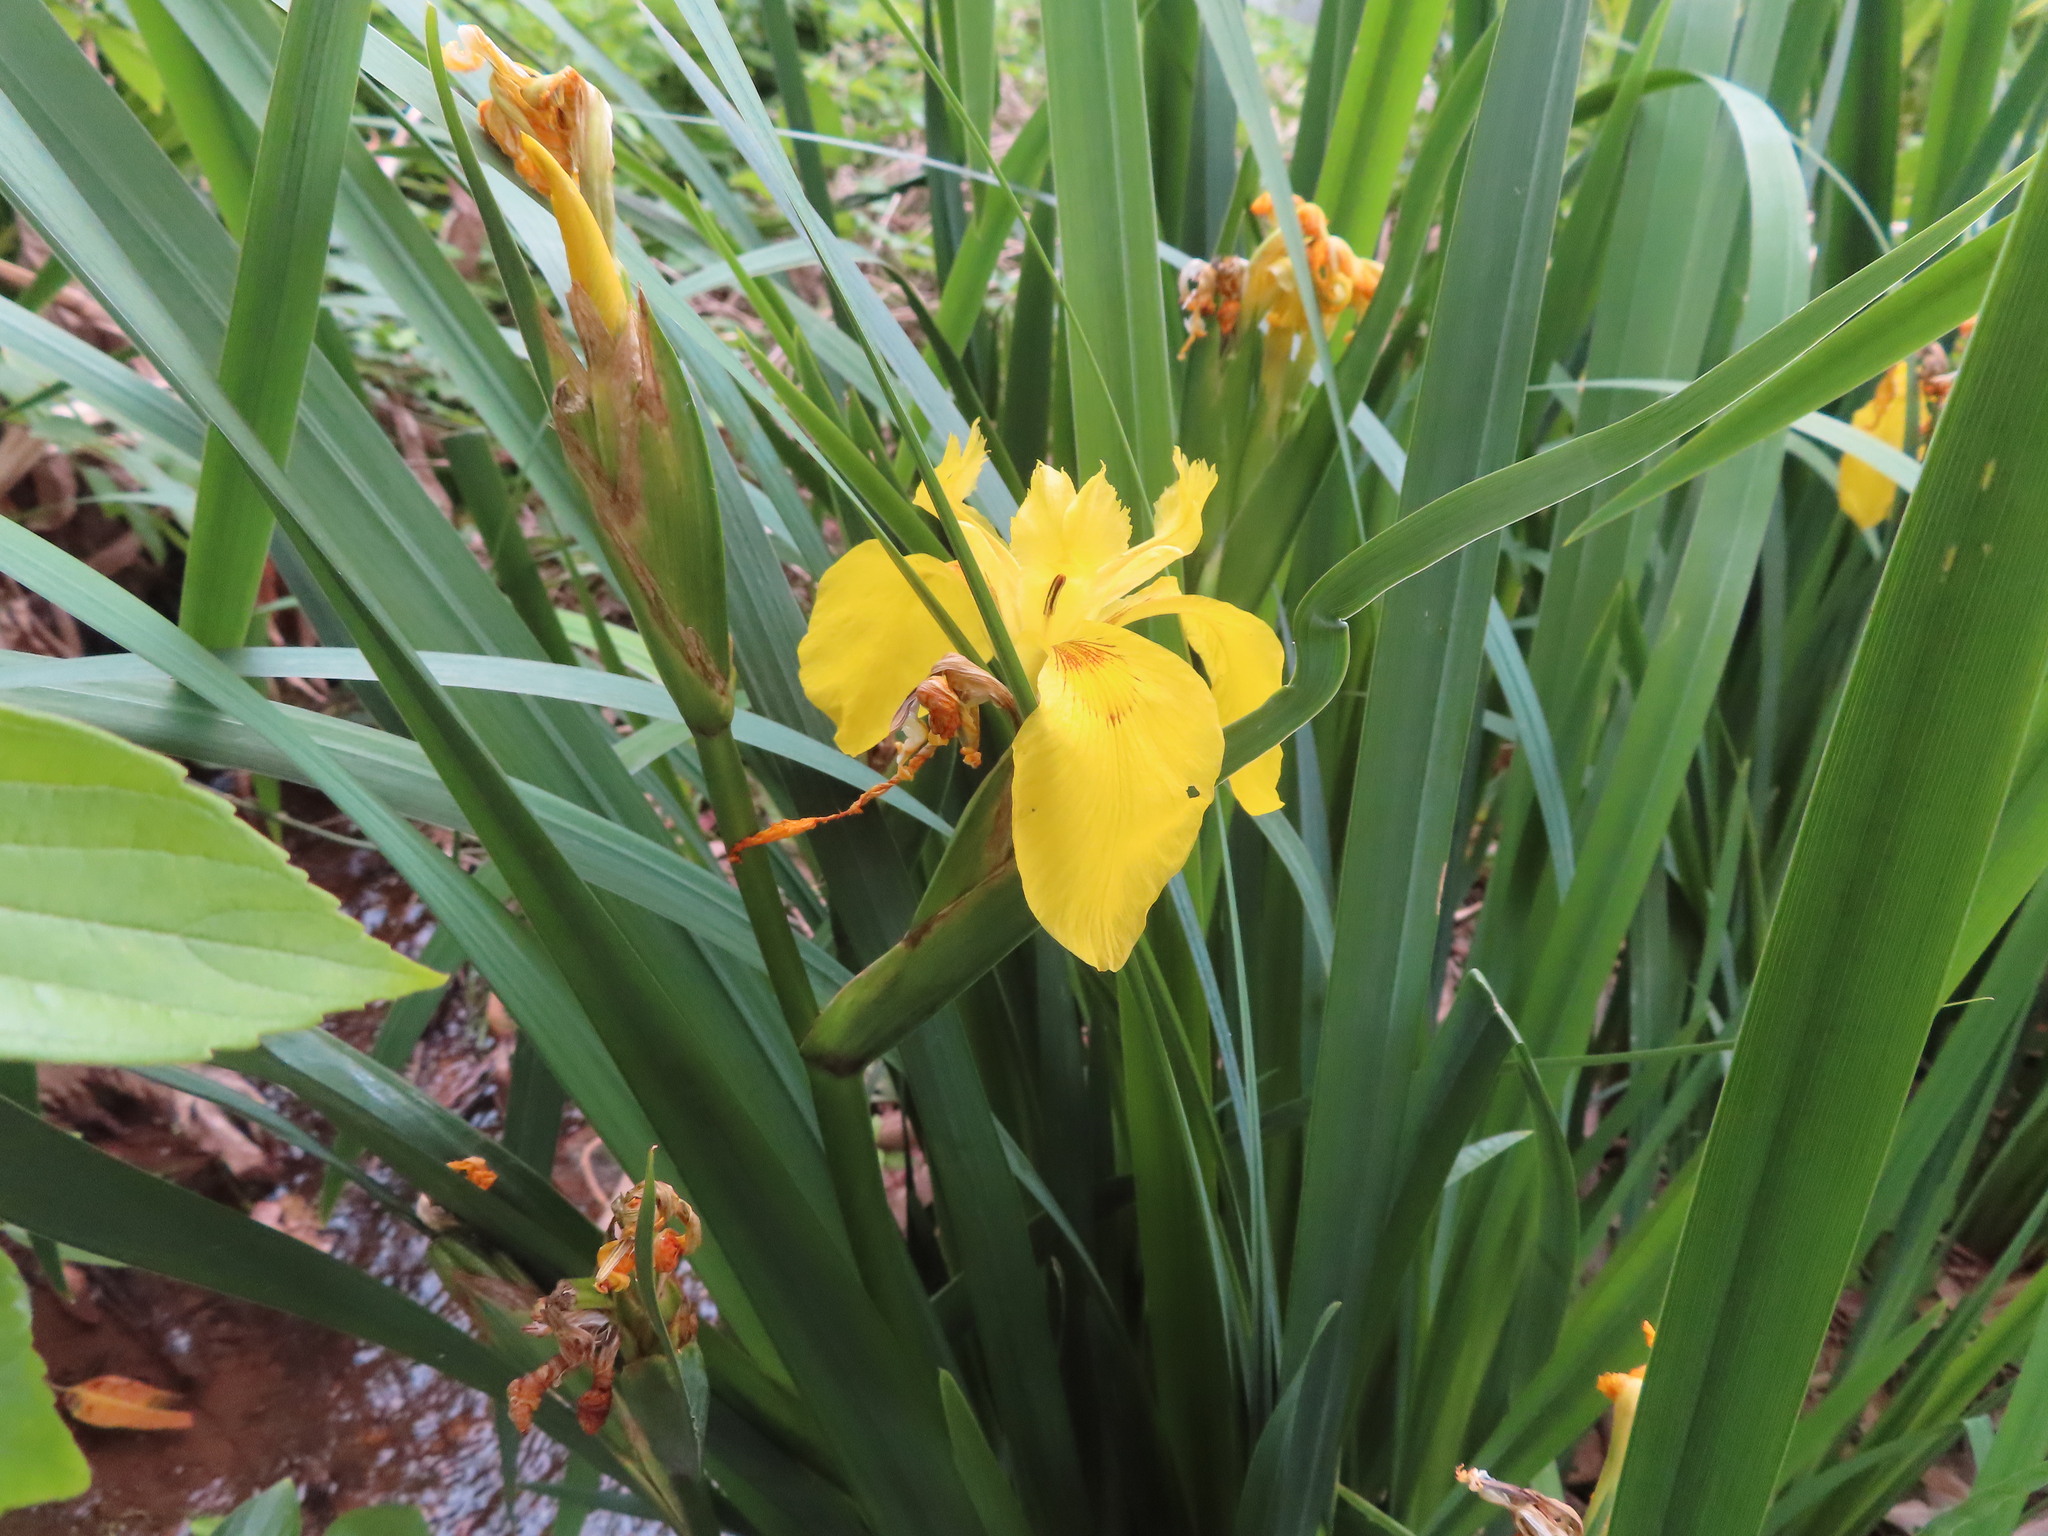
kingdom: Plantae
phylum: Tracheophyta
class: Liliopsida
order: Asparagales
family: Iridaceae
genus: Iris
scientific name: Iris pseudacorus
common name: Yellow flag
